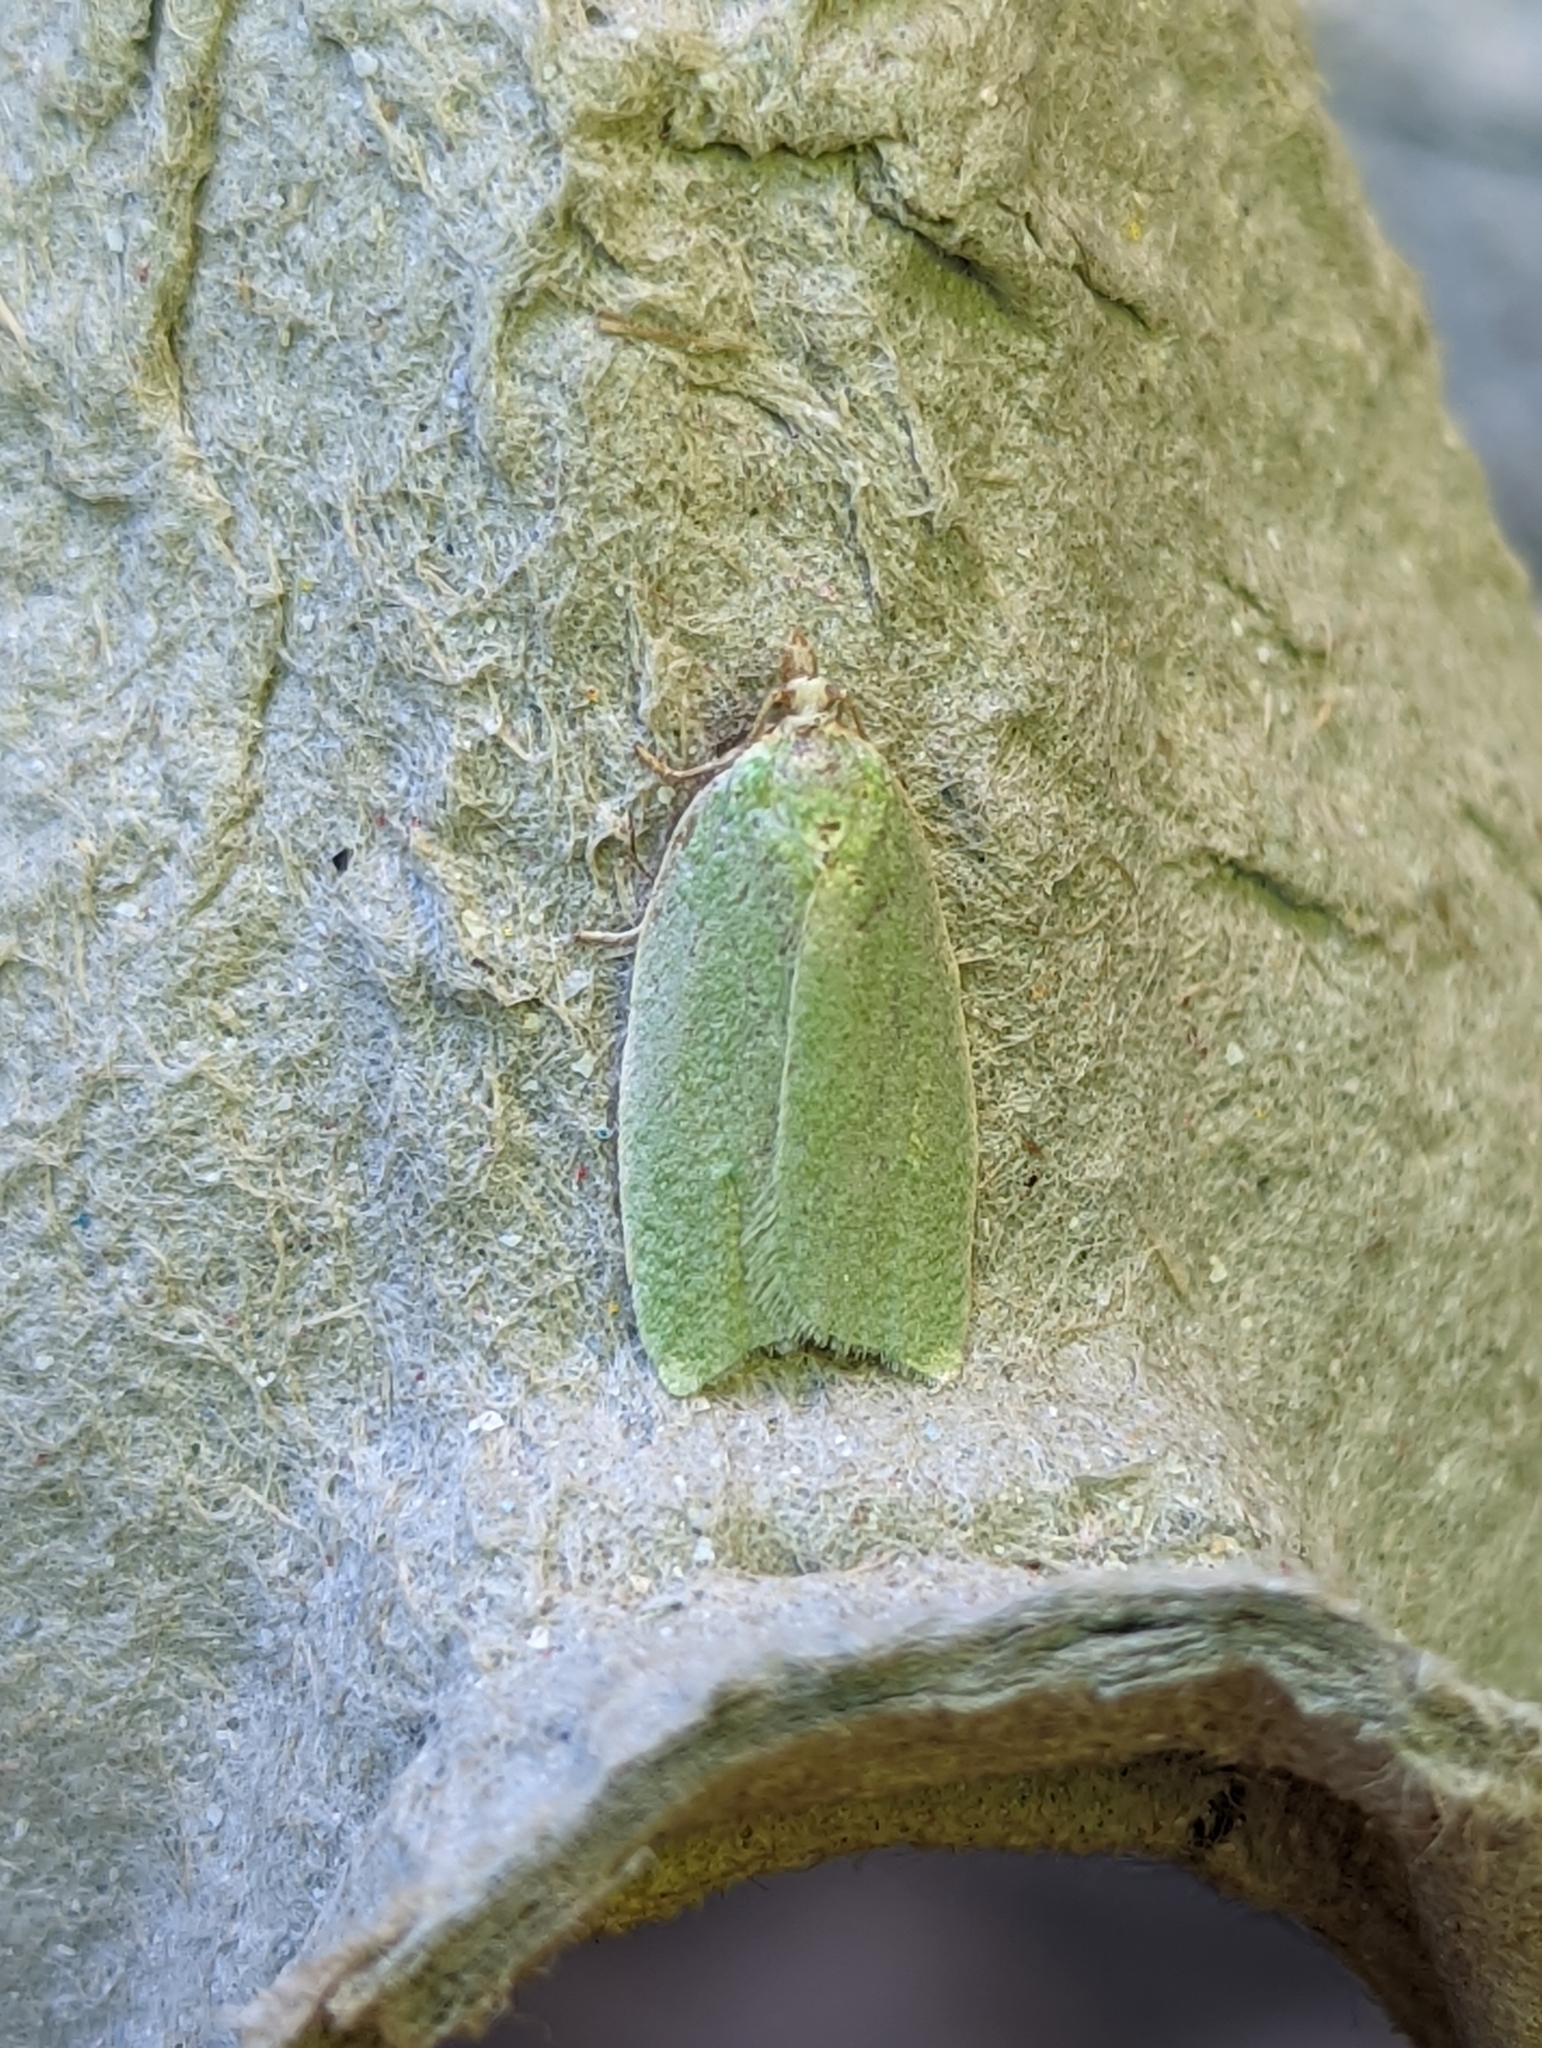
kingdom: Animalia
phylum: Arthropoda
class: Insecta
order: Lepidoptera
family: Tortricidae
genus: Tortrix
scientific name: Tortrix viridana
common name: Green oak tortrix
